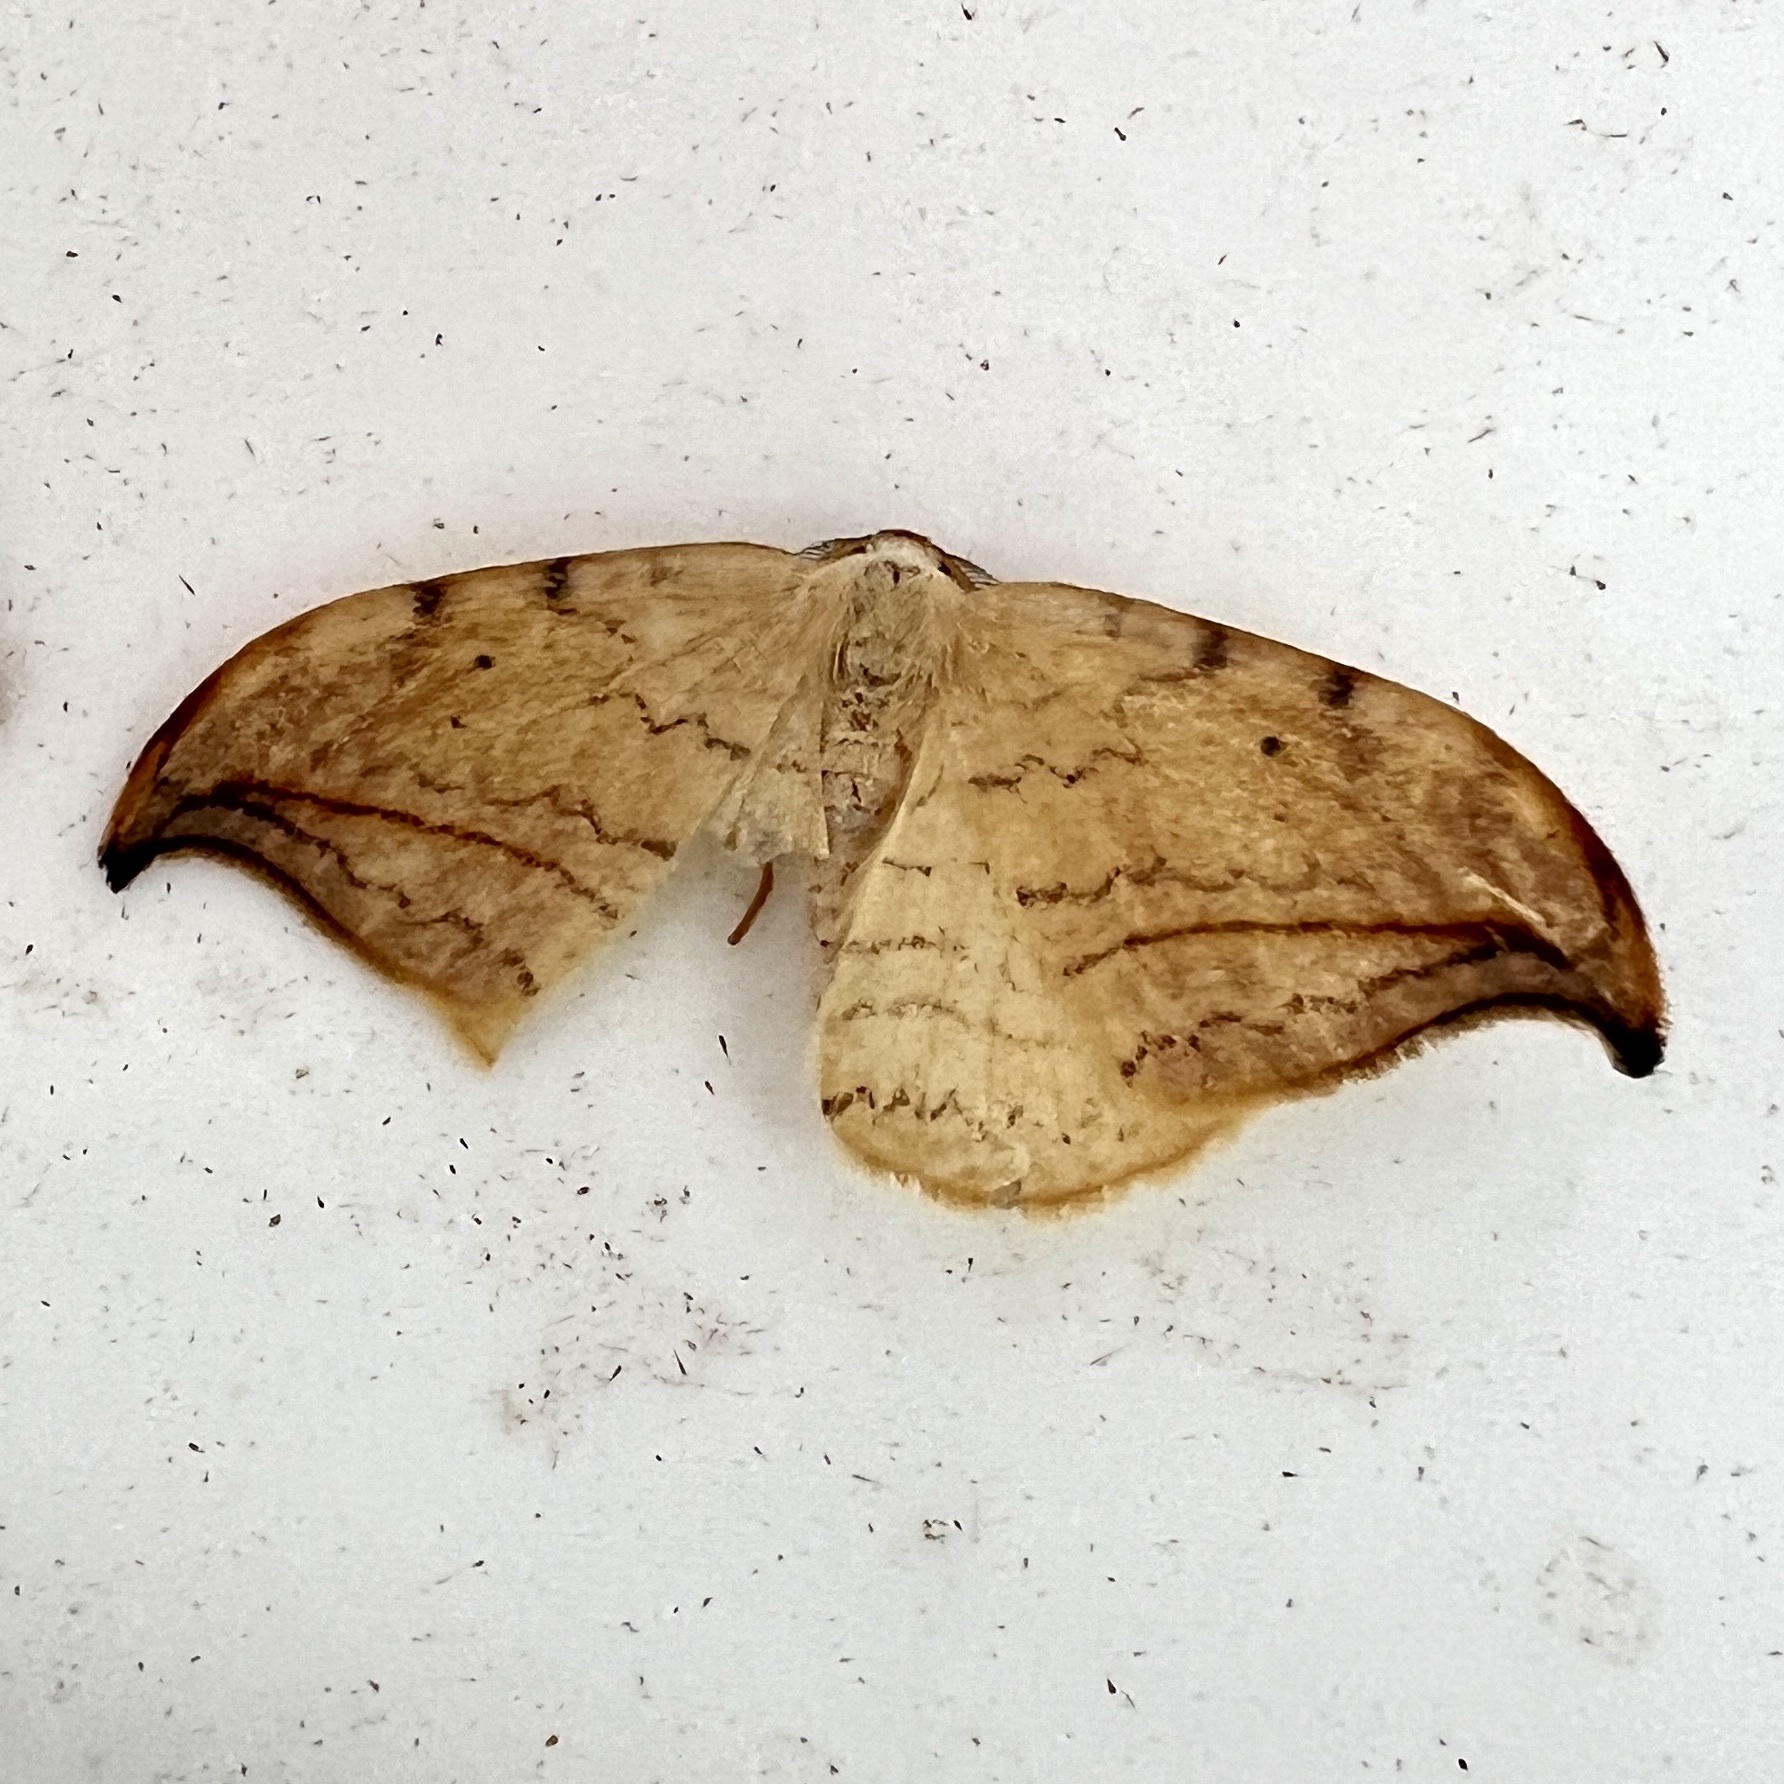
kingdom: Animalia
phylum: Arthropoda
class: Insecta
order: Lepidoptera
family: Drepanidae
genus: Drepana
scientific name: Drepana arcuata
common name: Arched hooktip moth
